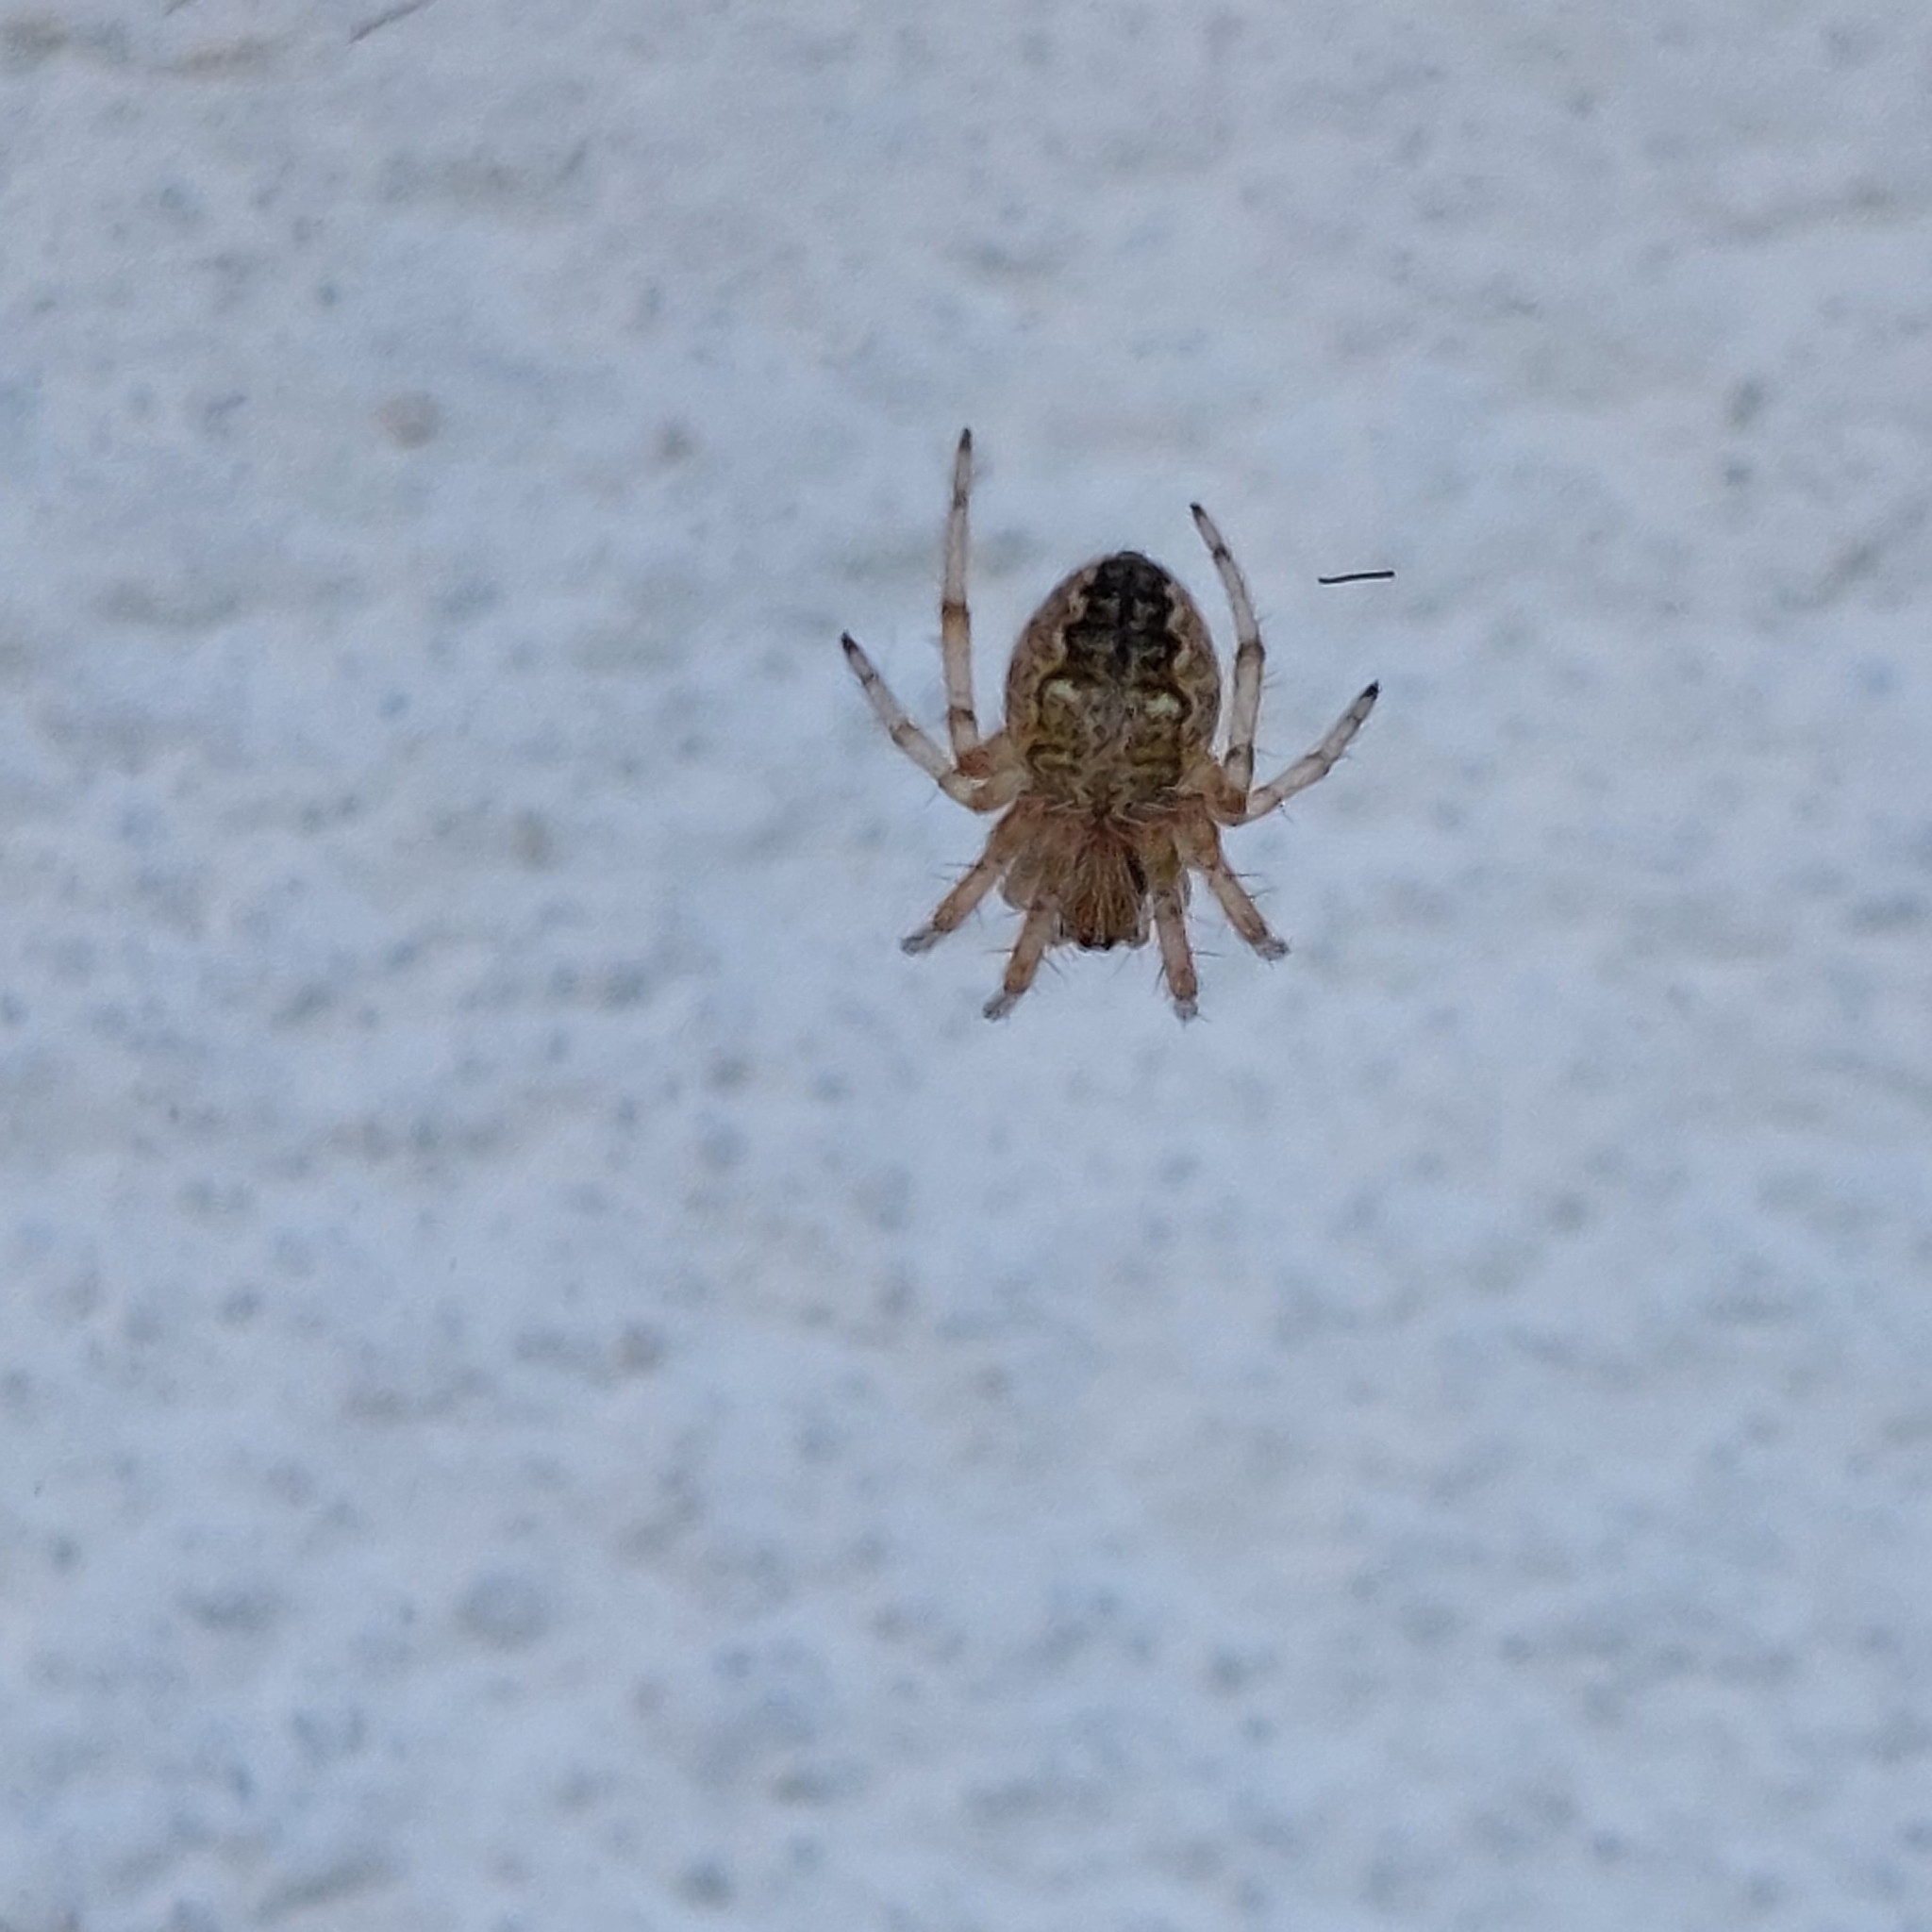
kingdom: Animalia
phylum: Arthropoda
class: Arachnida
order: Araneae
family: Araneidae
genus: Metepeira
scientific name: Metepeira
